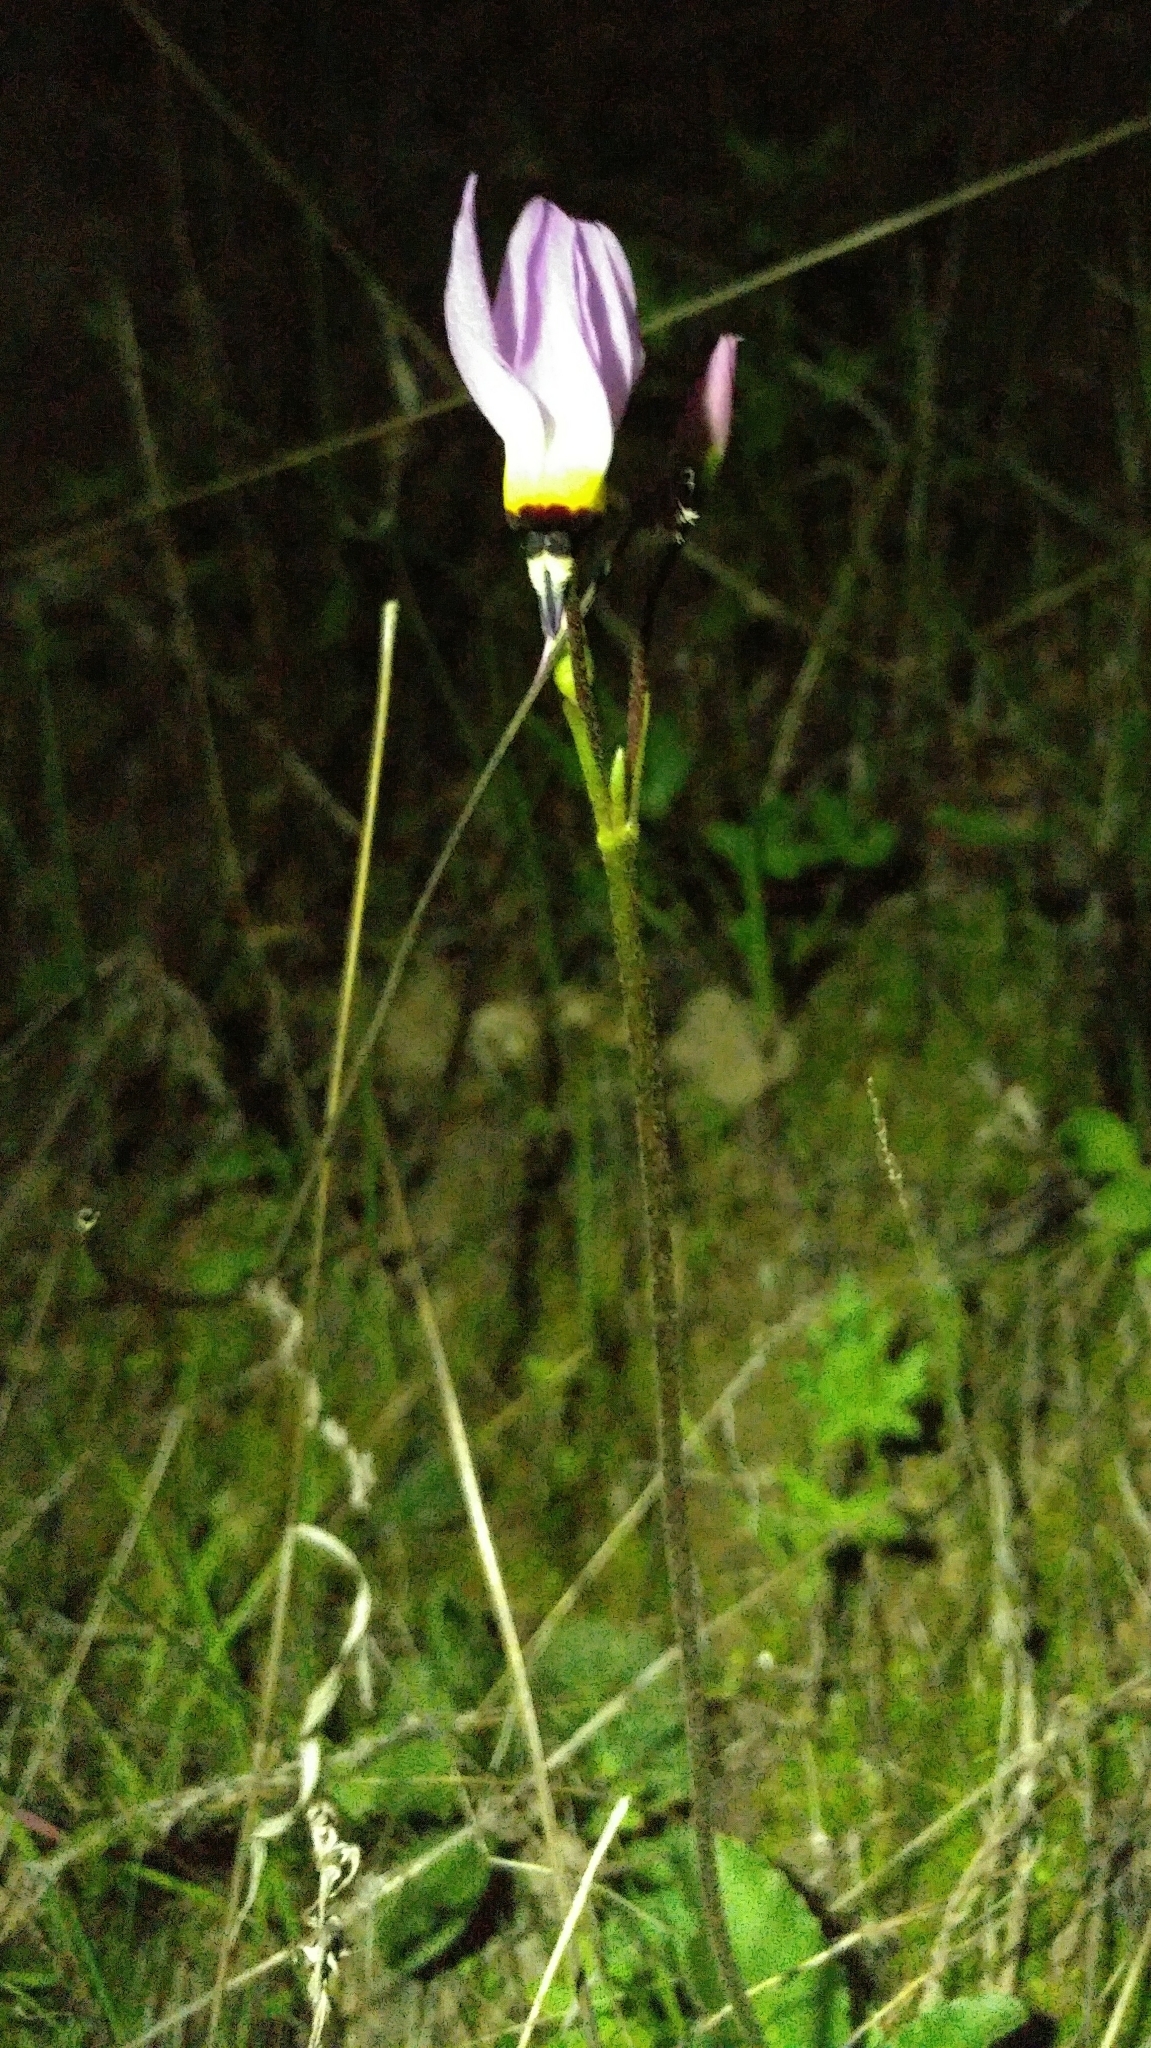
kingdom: Plantae
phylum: Tracheophyta
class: Magnoliopsida
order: Ericales
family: Primulaceae
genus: Dodecatheon
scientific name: Dodecatheon clevelandii
